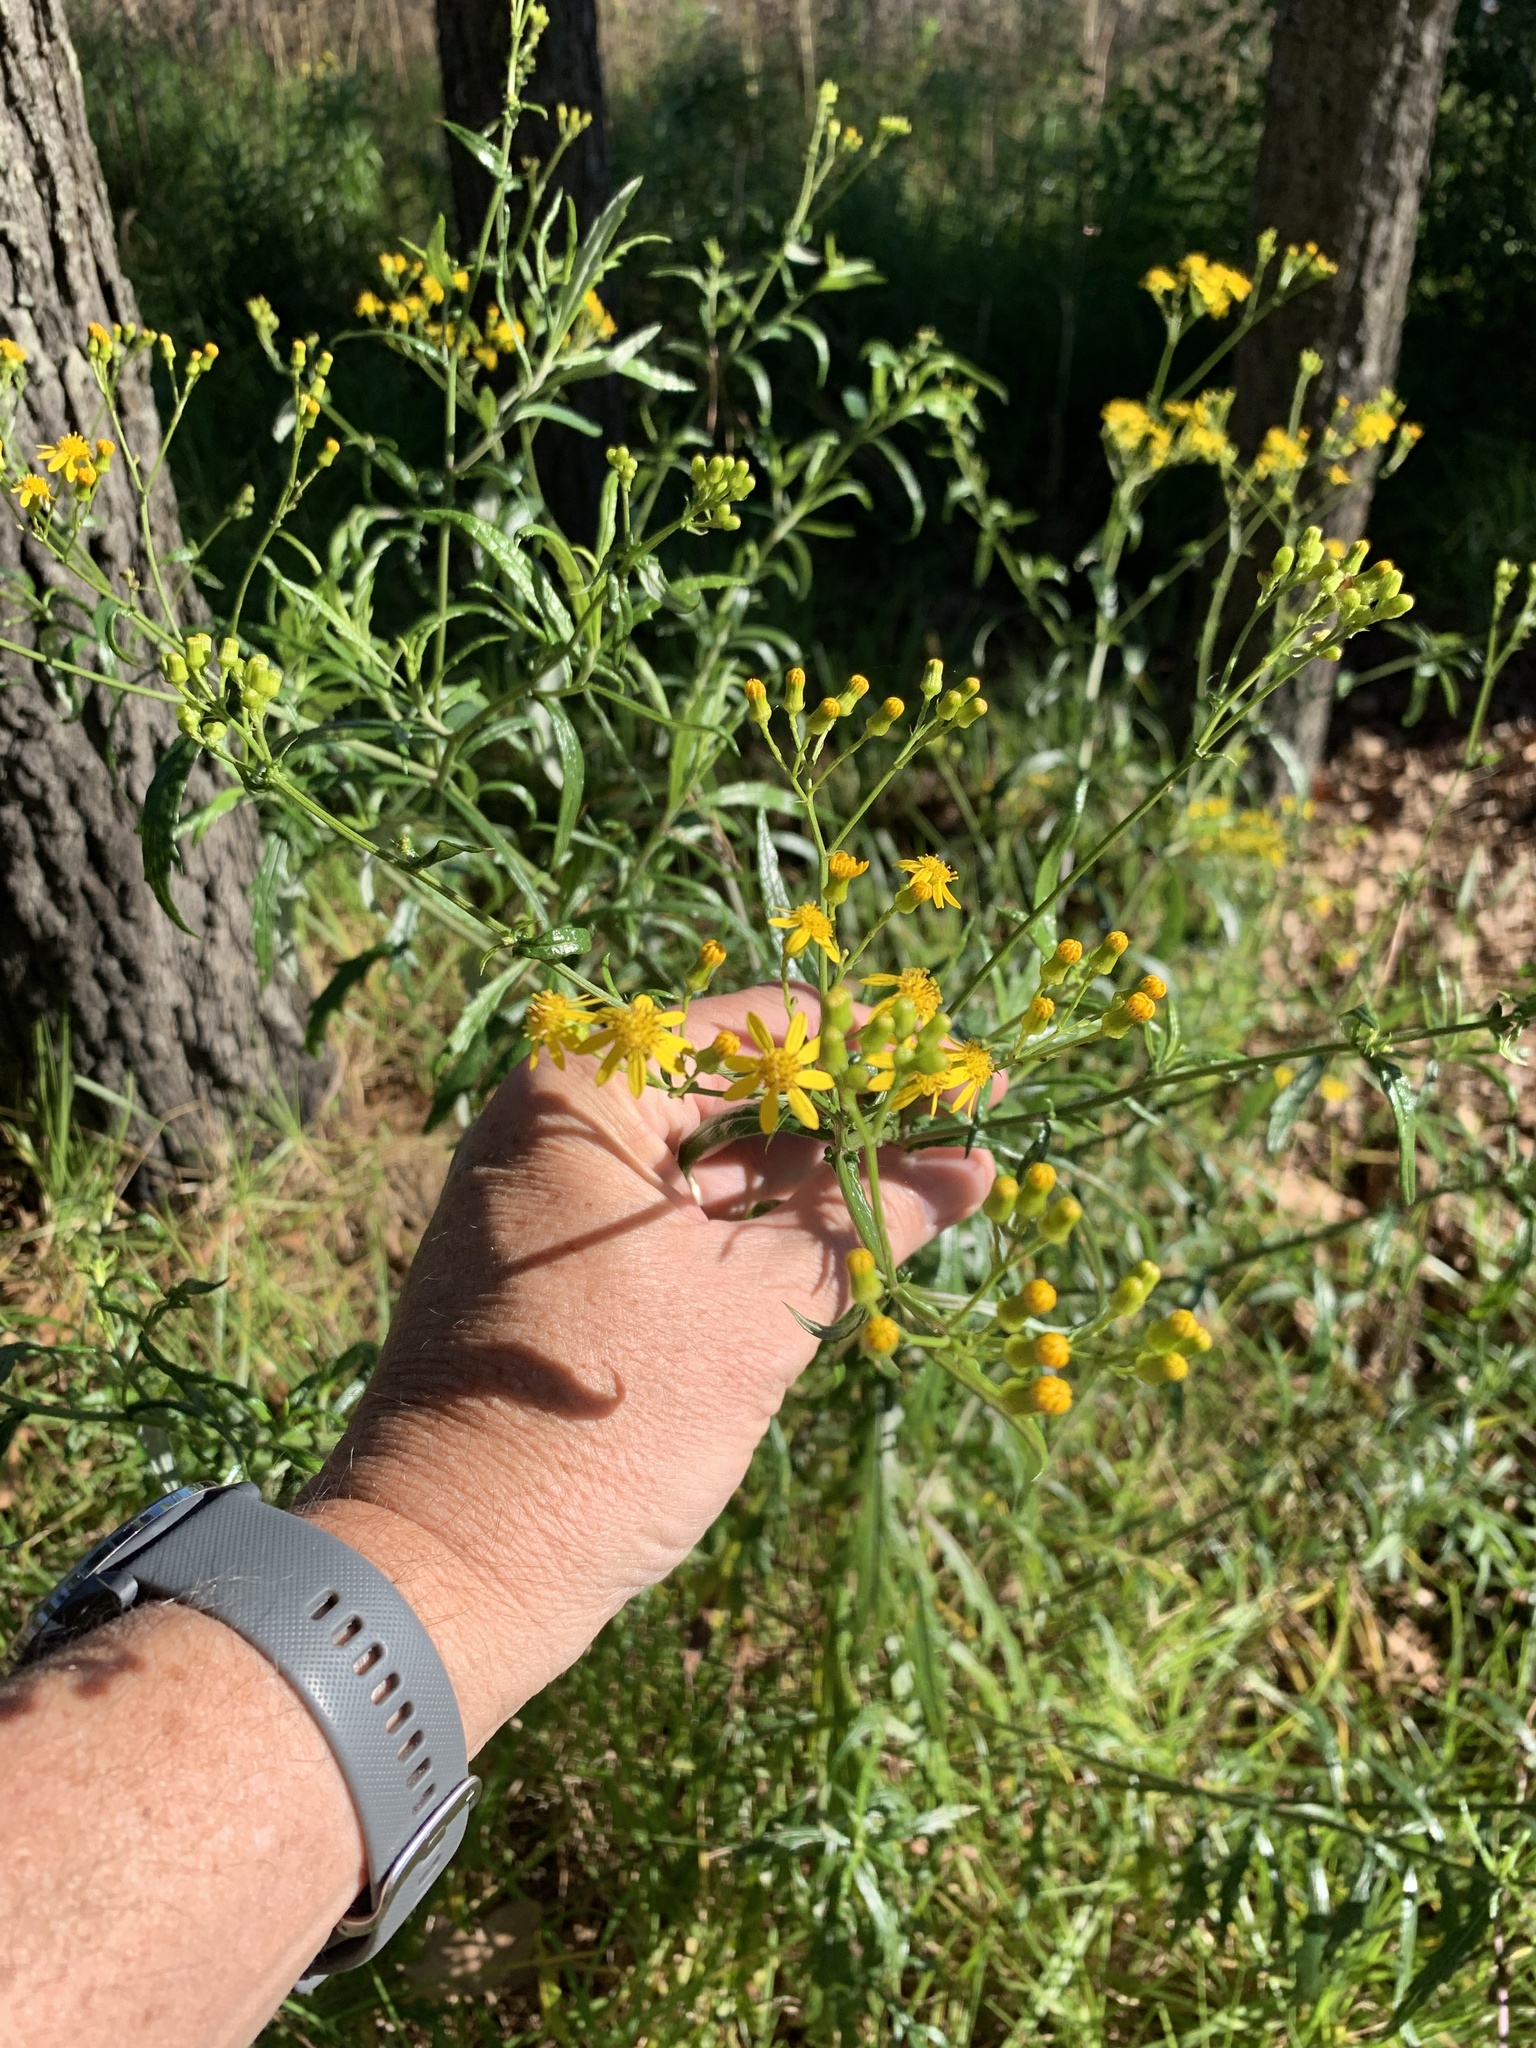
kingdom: Plantae
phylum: Tracheophyta
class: Magnoliopsida
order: Asterales
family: Asteraceae
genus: Senecio
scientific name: Senecio pterophorus
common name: Shoddy ragwort
